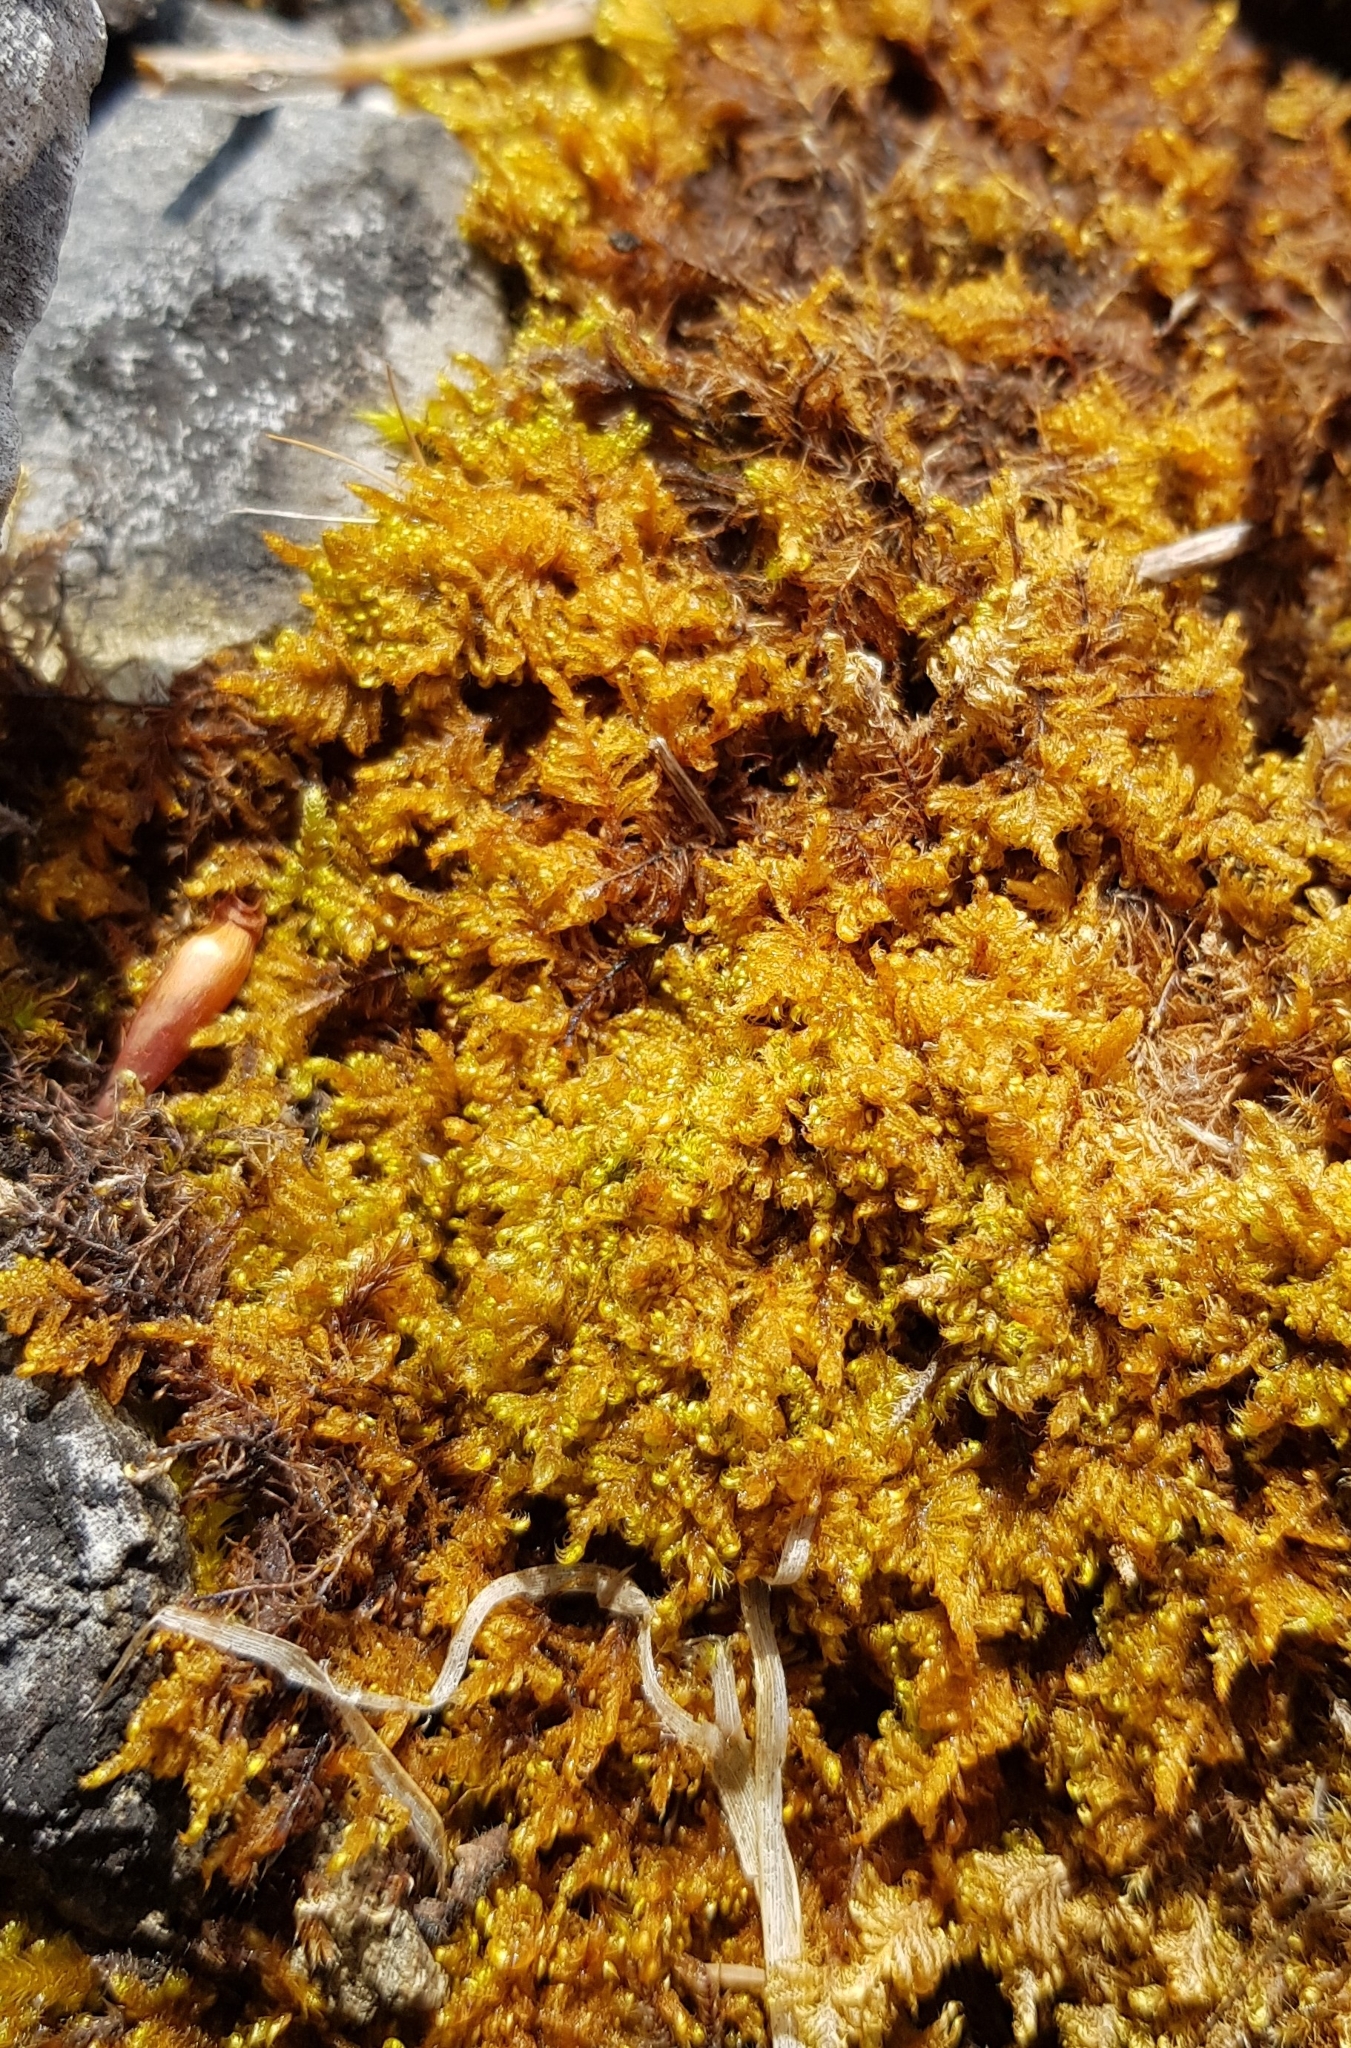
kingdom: Plantae
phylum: Bryophyta
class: Bryopsida
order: Hypnales
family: Myuriaceae
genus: Ctenidium
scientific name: Ctenidium molluscum
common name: Chalk comb-moss
